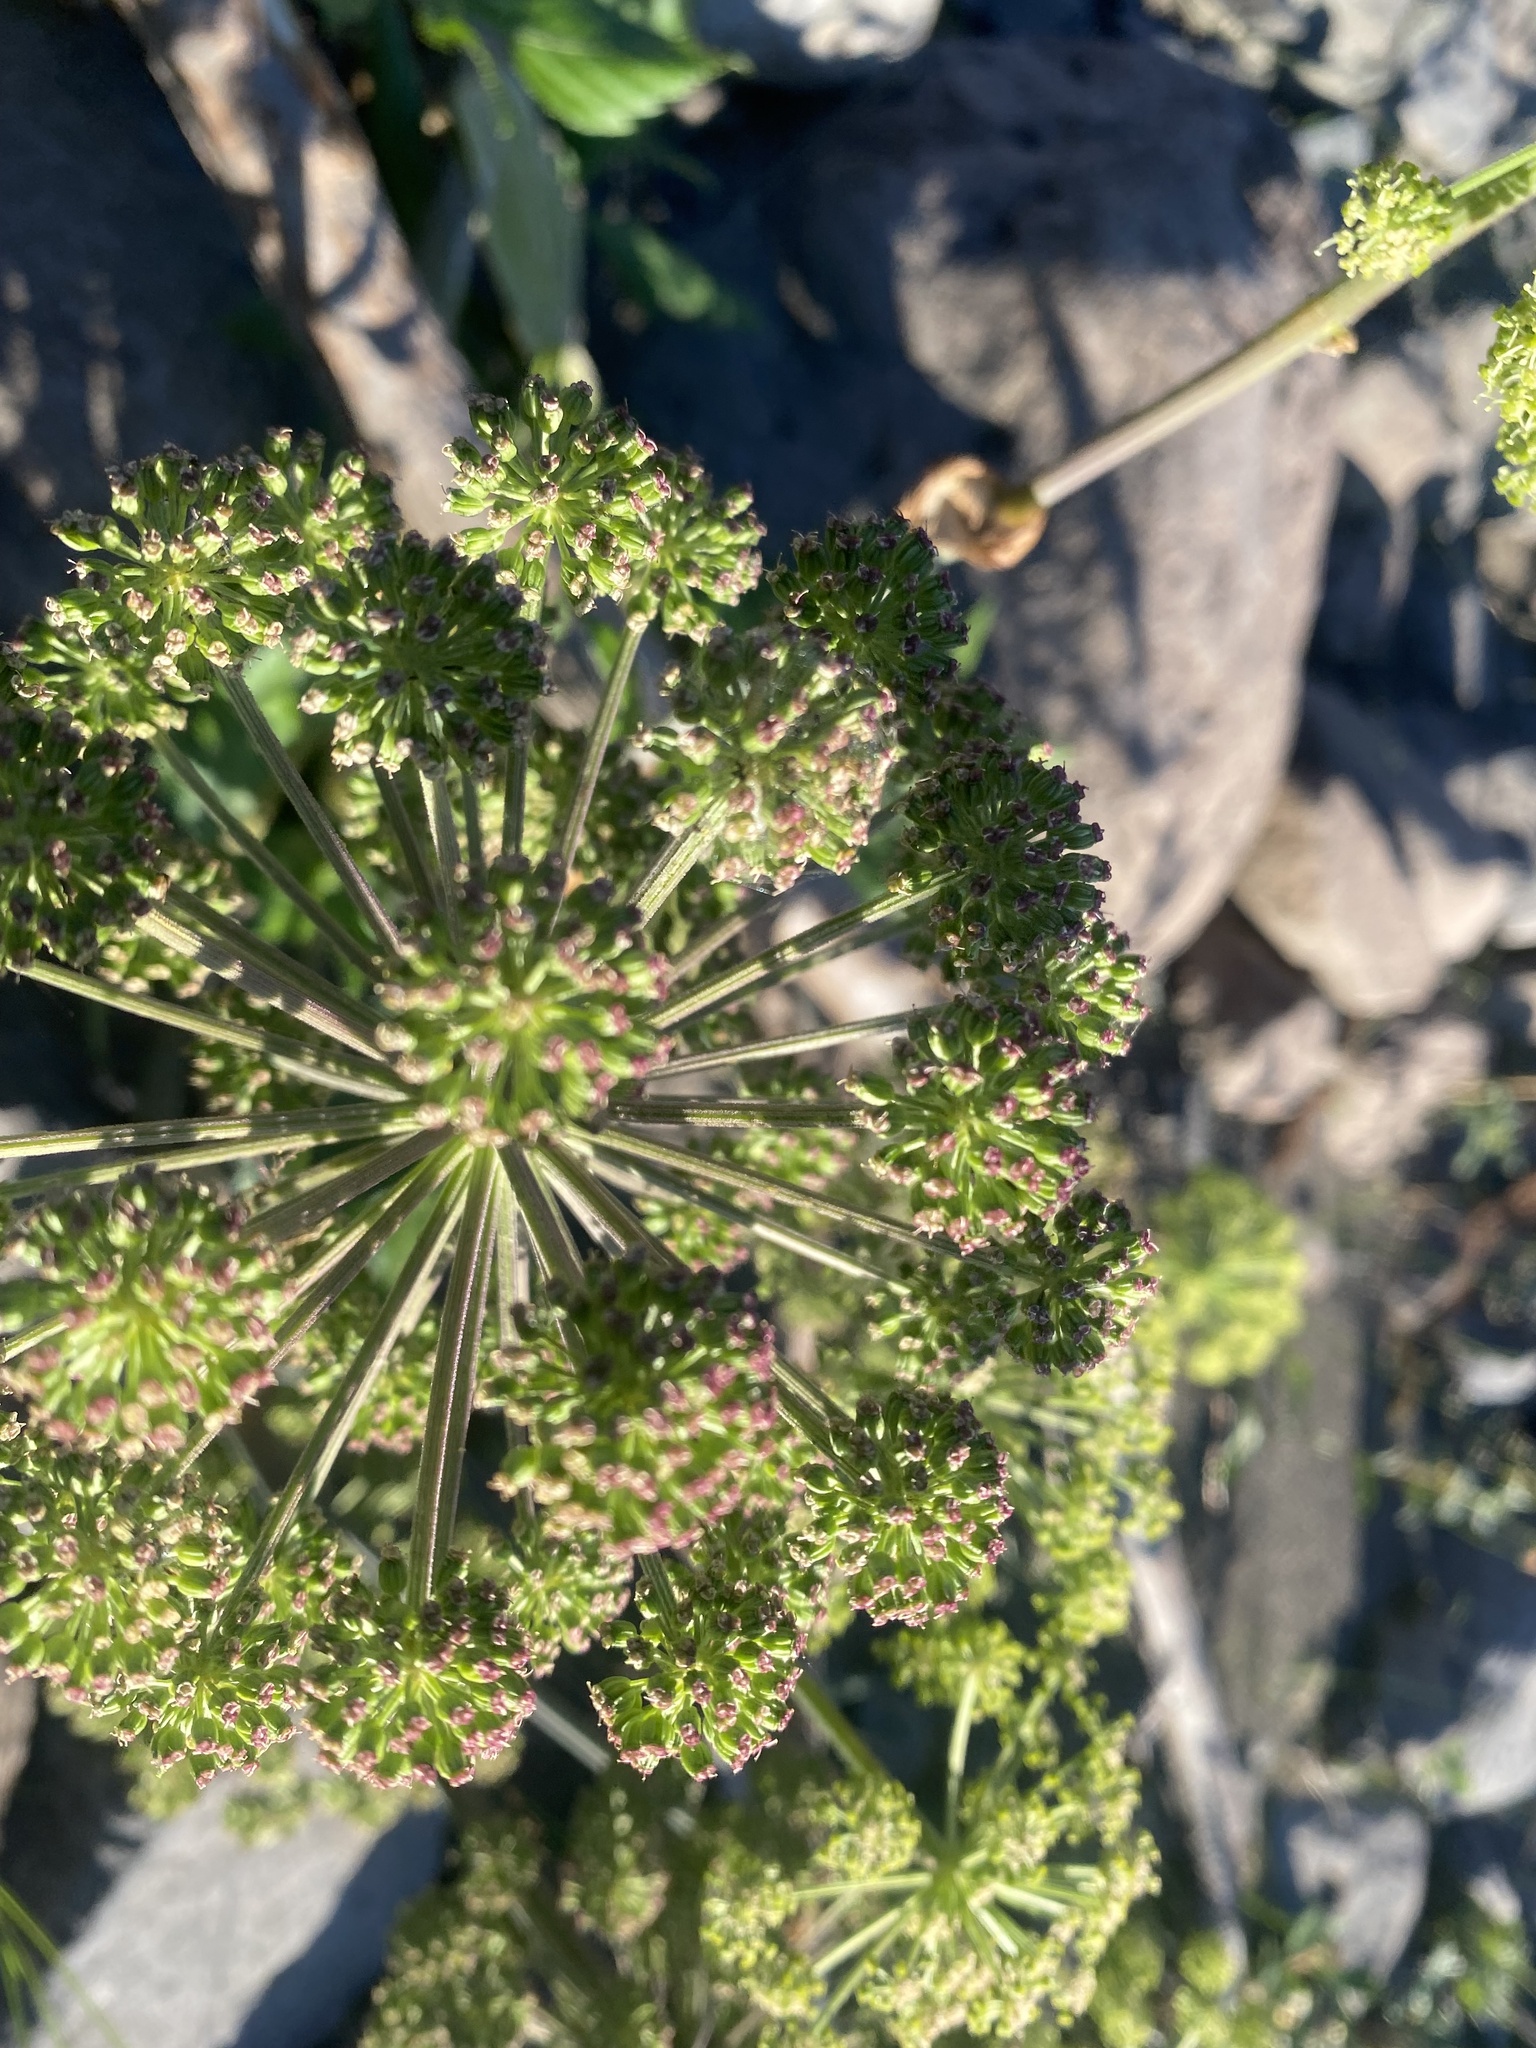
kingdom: Plantae
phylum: Tracheophyta
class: Magnoliopsida
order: Apiales
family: Apiaceae
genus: Angelica
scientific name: Angelica decurrens
